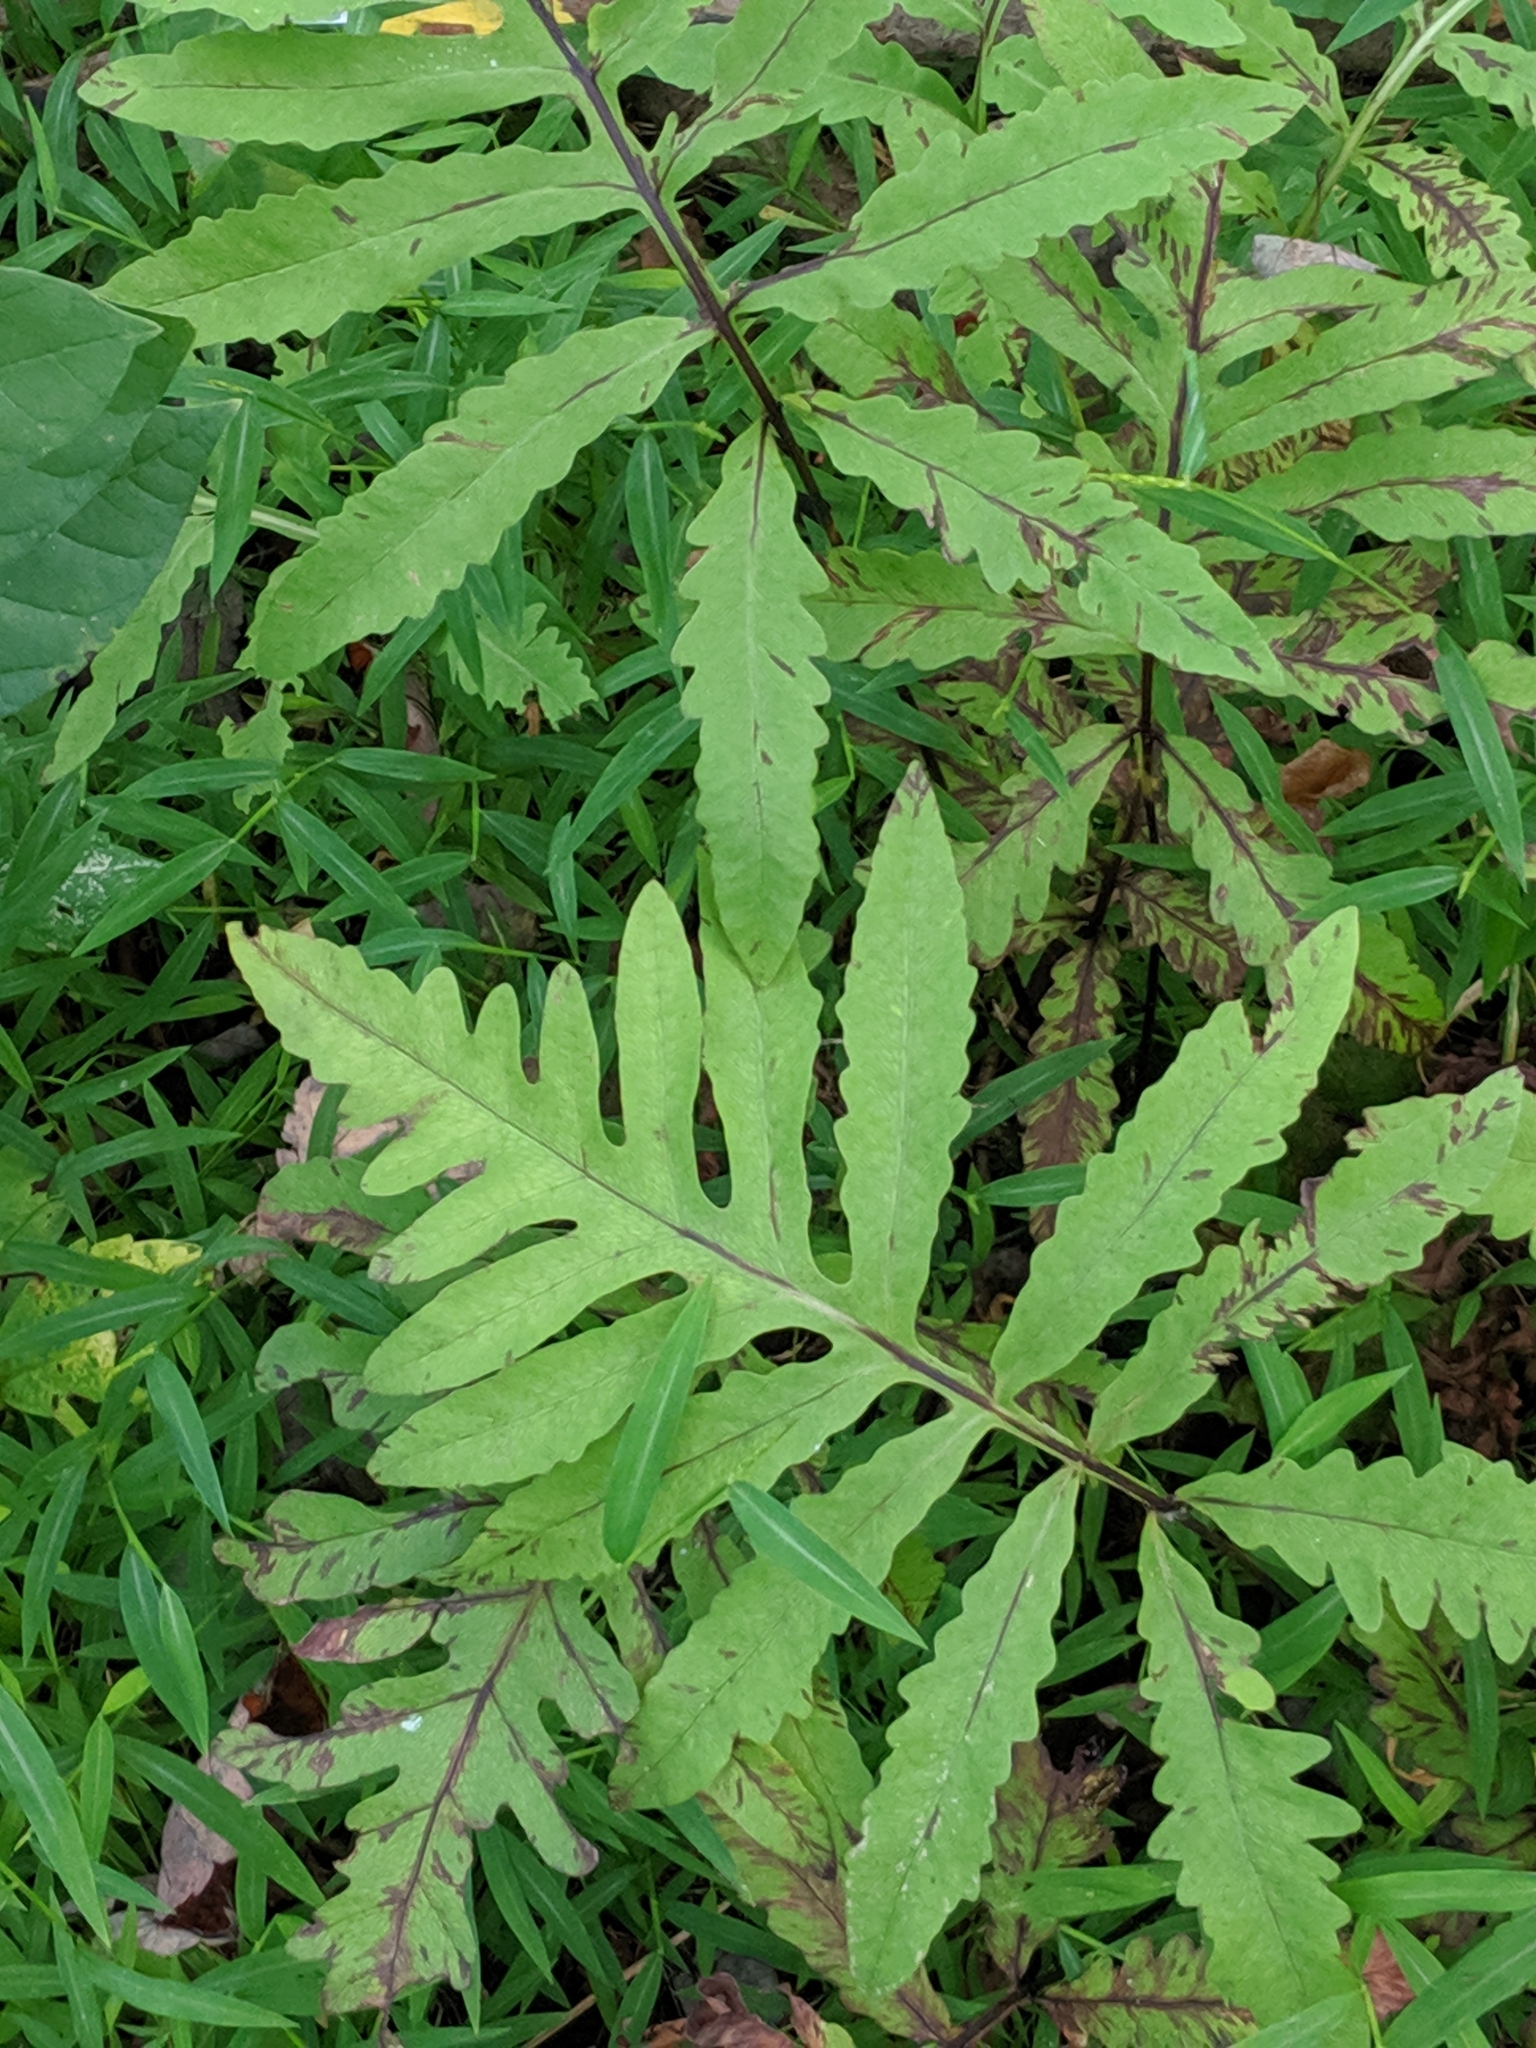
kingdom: Plantae
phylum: Tracheophyta
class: Polypodiopsida
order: Polypodiales
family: Onocleaceae
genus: Onoclea
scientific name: Onoclea sensibilis
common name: Sensitive fern
